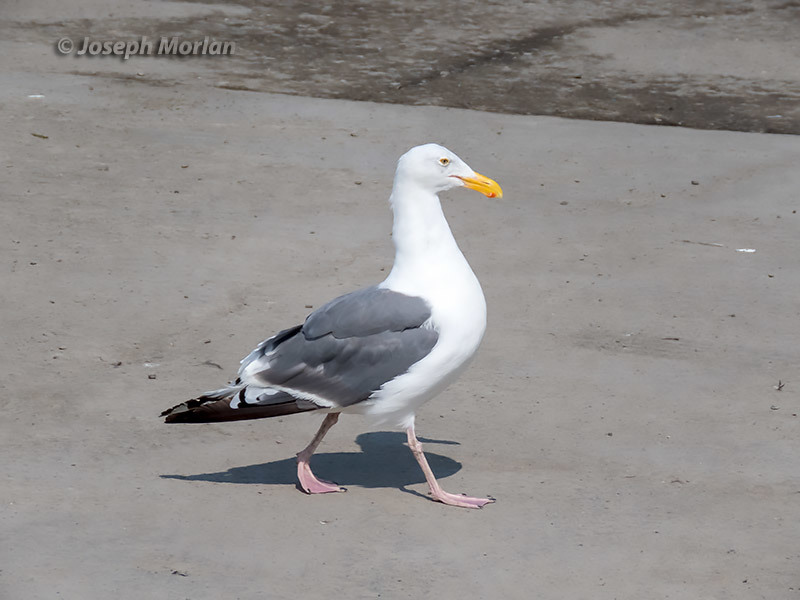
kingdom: Animalia
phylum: Chordata
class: Aves
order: Charadriiformes
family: Laridae
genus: Larus
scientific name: Larus occidentalis
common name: Western gull
